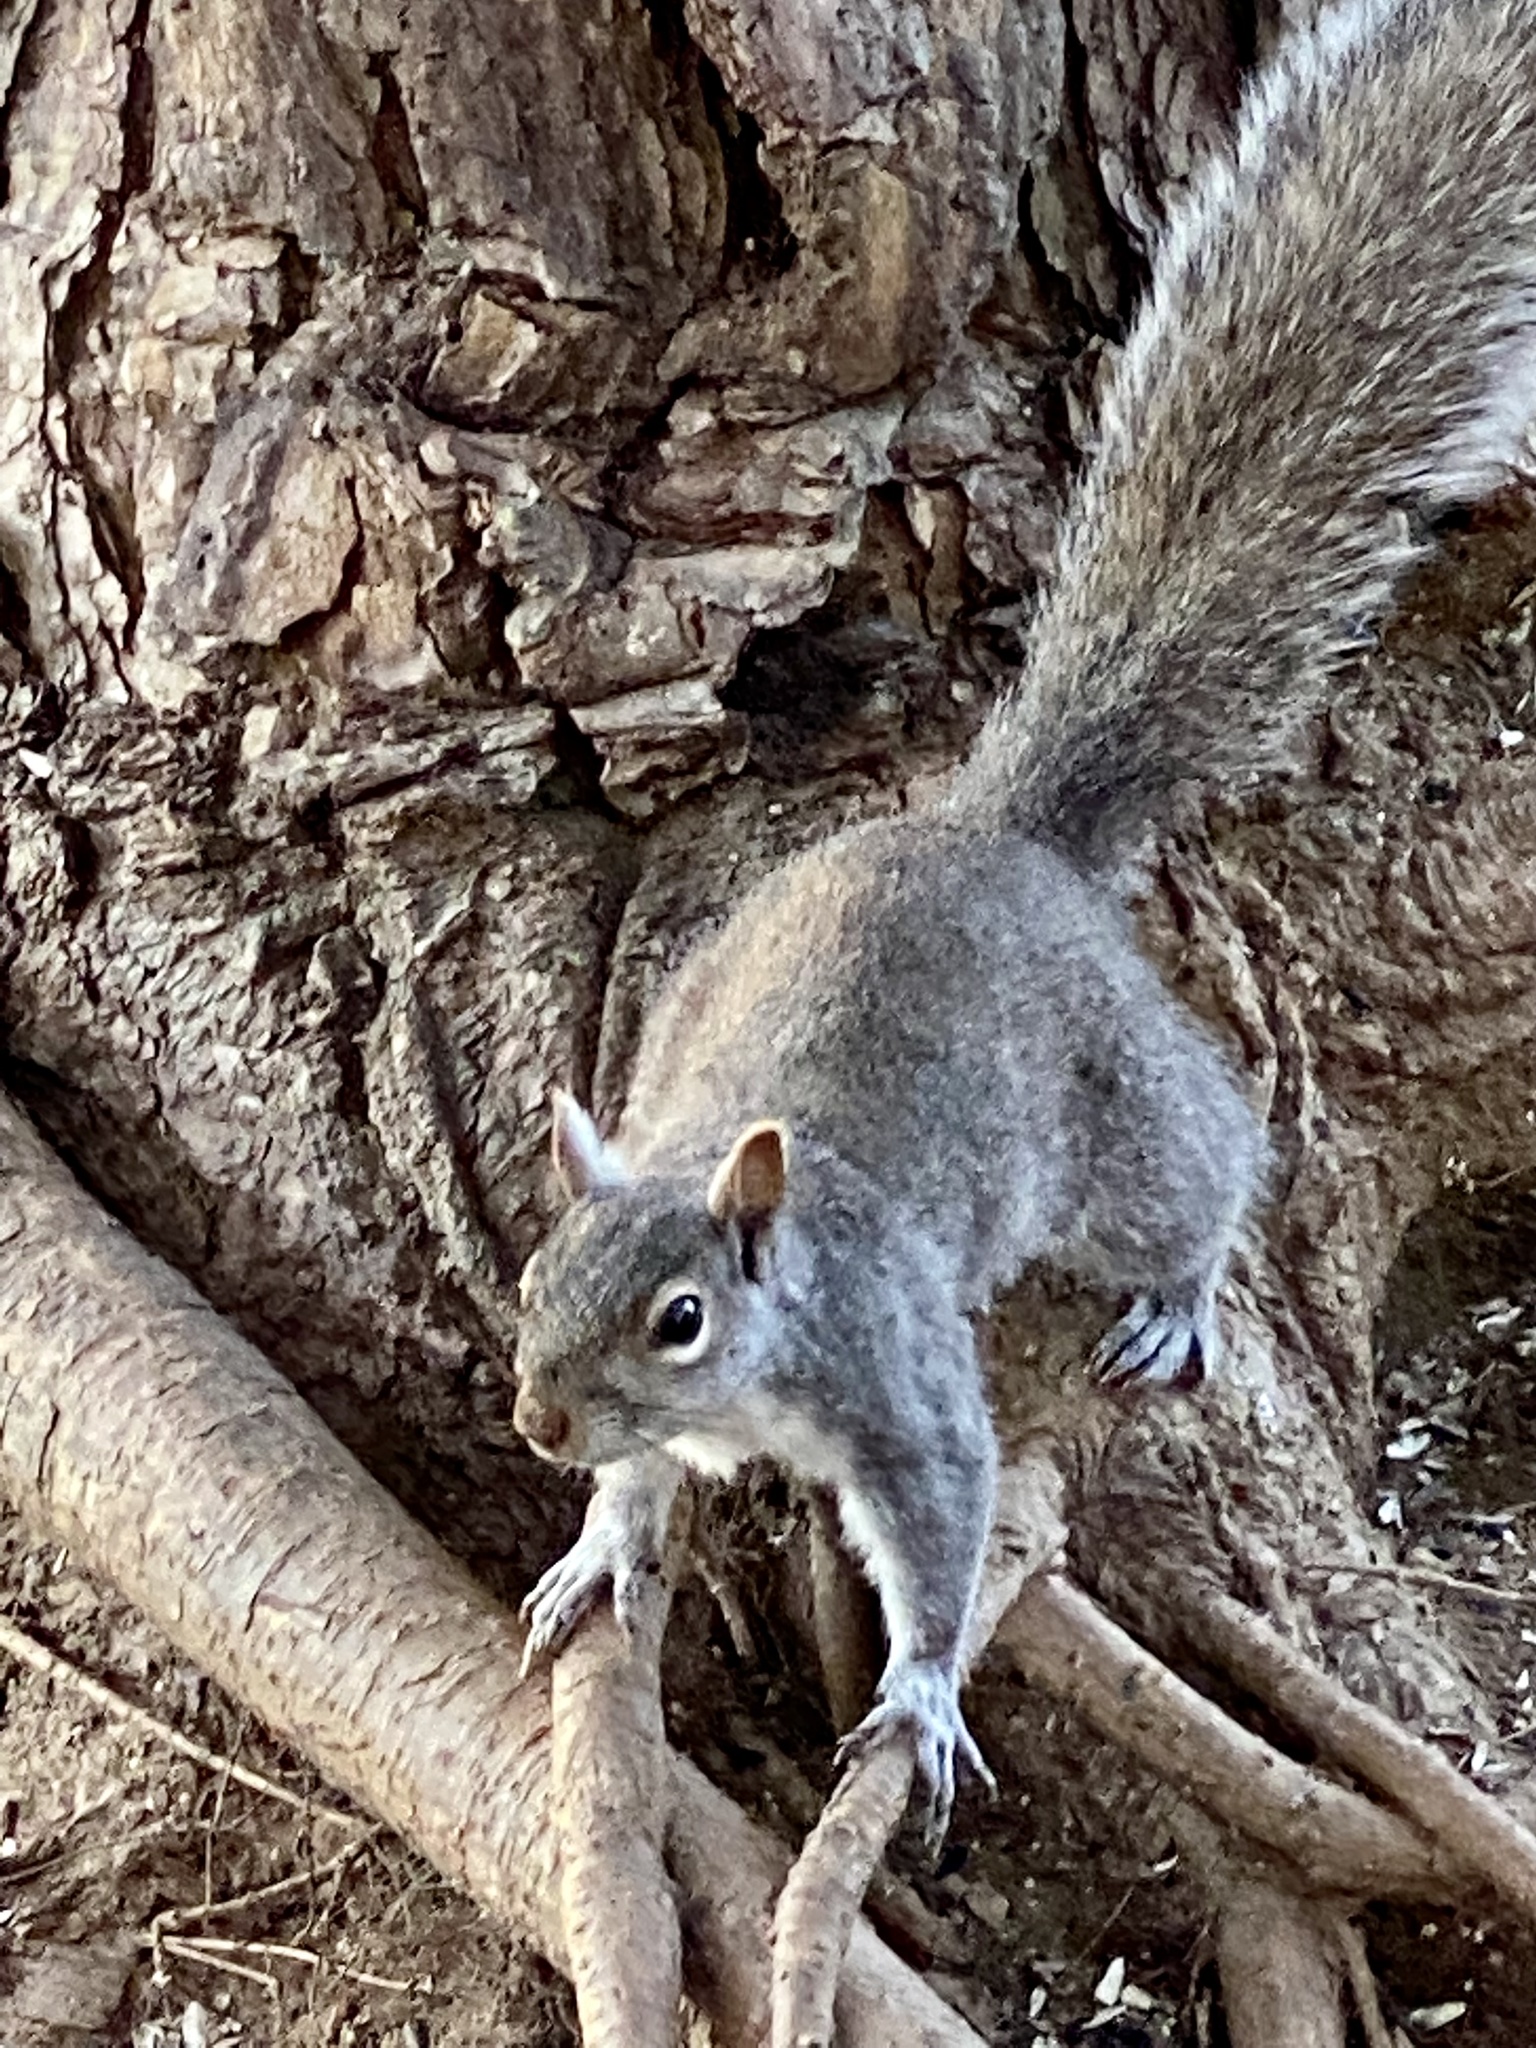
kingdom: Animalia
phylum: Chordata
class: Mammalia
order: Rodentia
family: Sciuridae
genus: Sciurus
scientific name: Sciurus carolinensis
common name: Eastern gray squirrel
